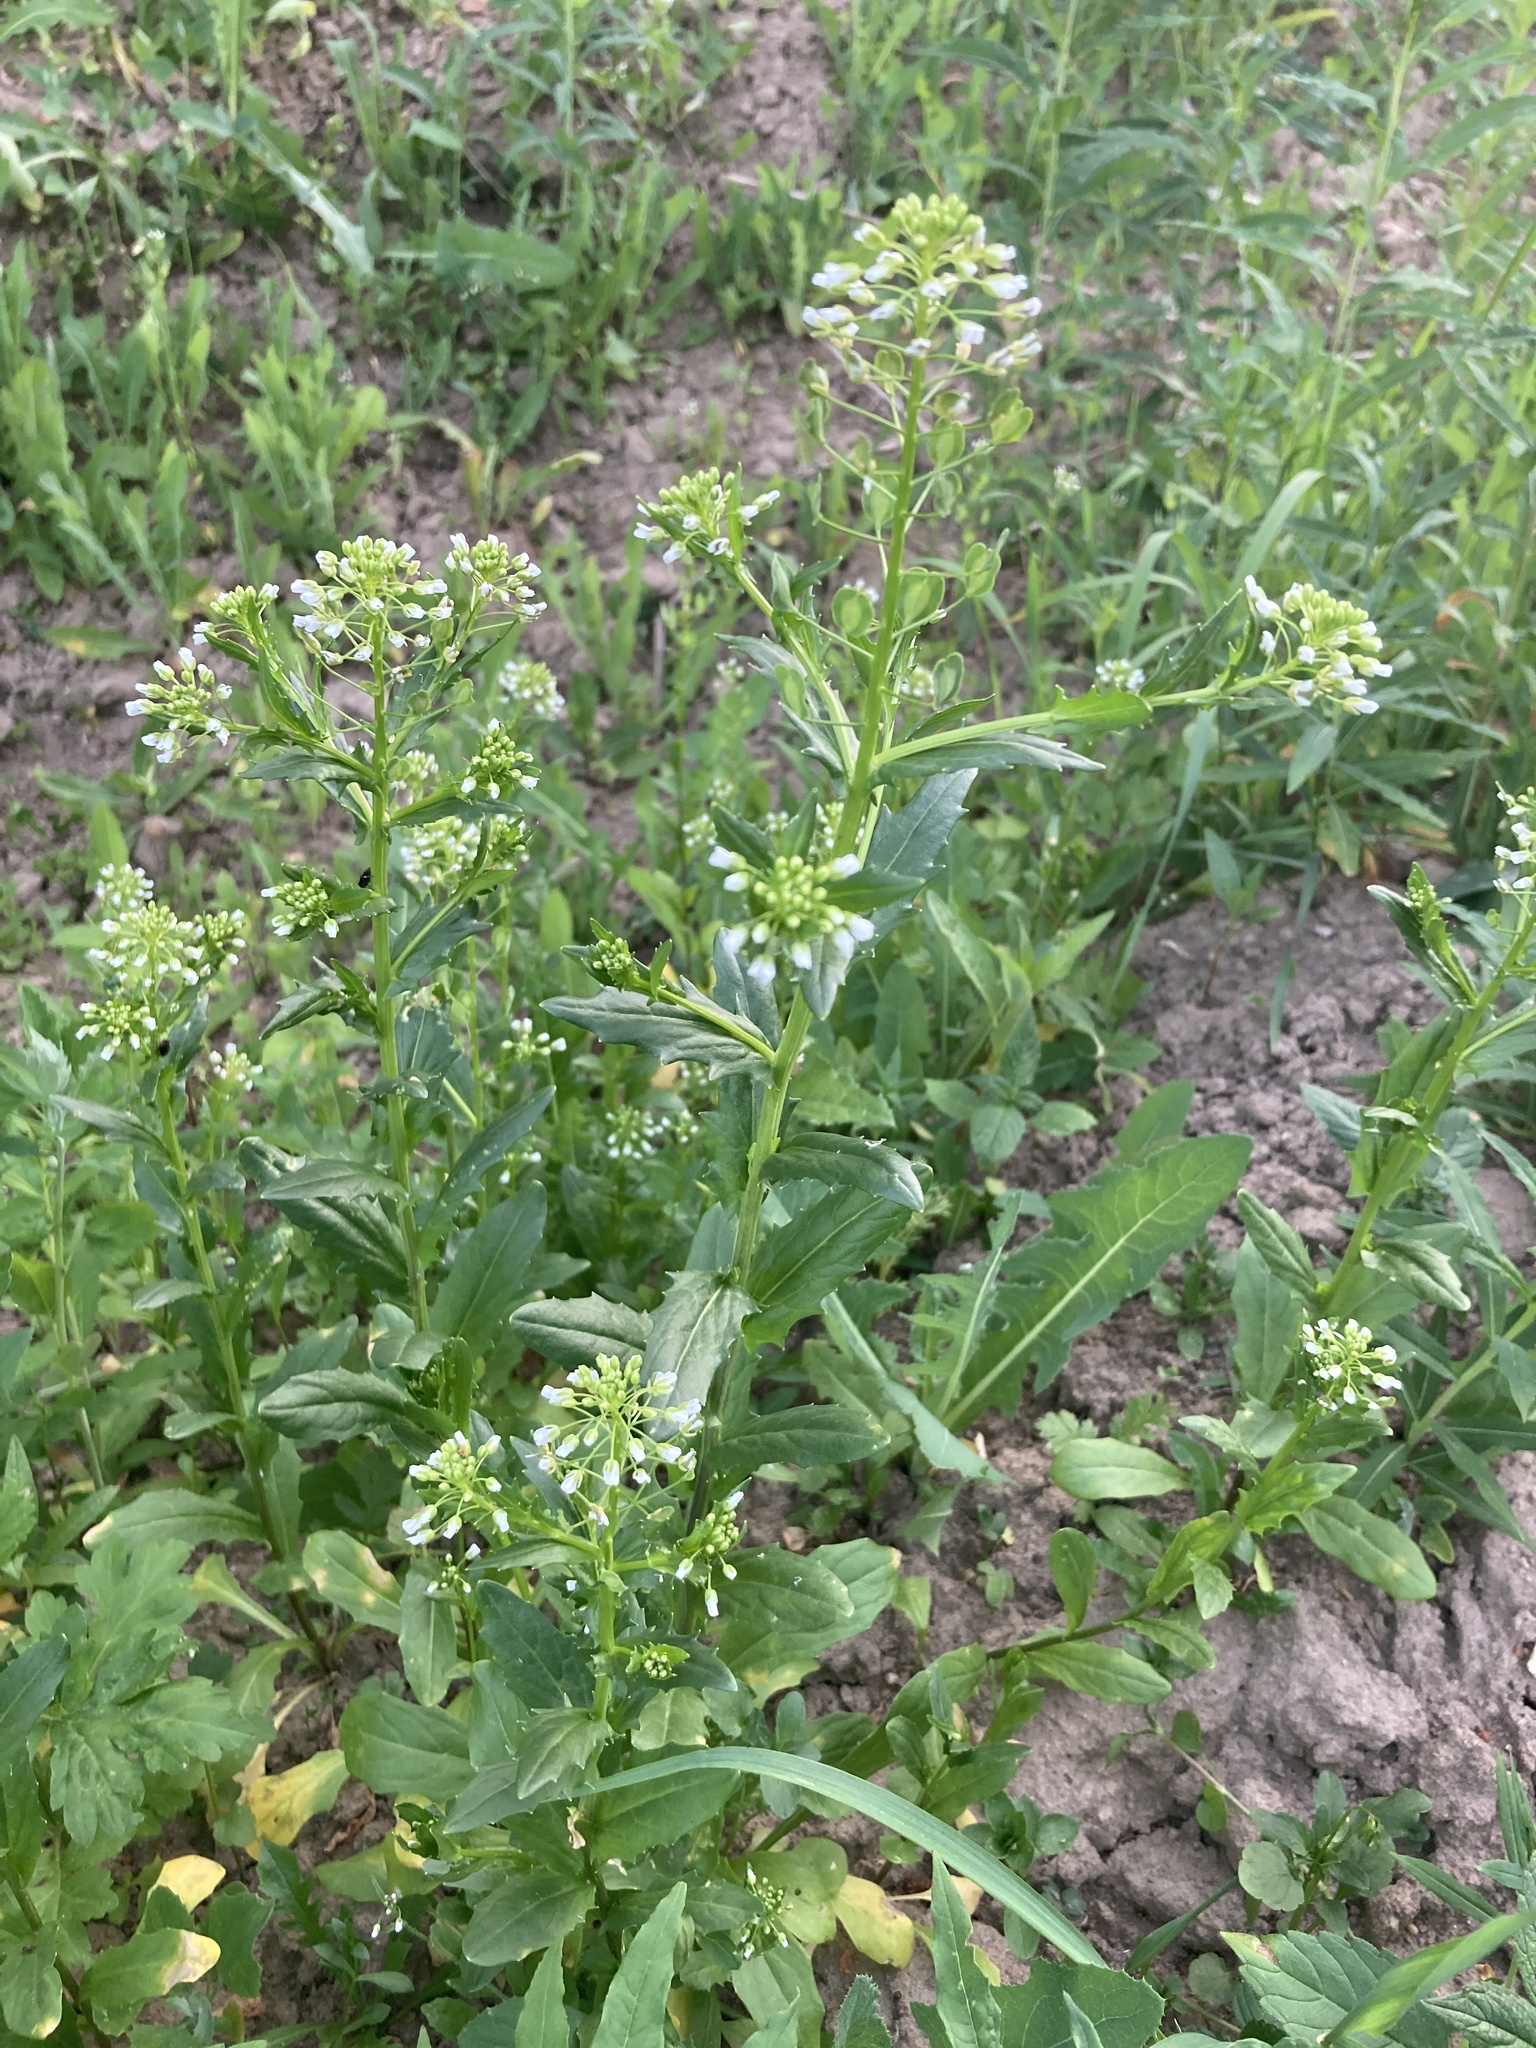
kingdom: Plantae
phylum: Tracheophyta
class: Magnoliopsida
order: Brassicales
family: Brassicaceae
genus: Thlaspi
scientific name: Thlaspi arvense
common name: Field pennycress
